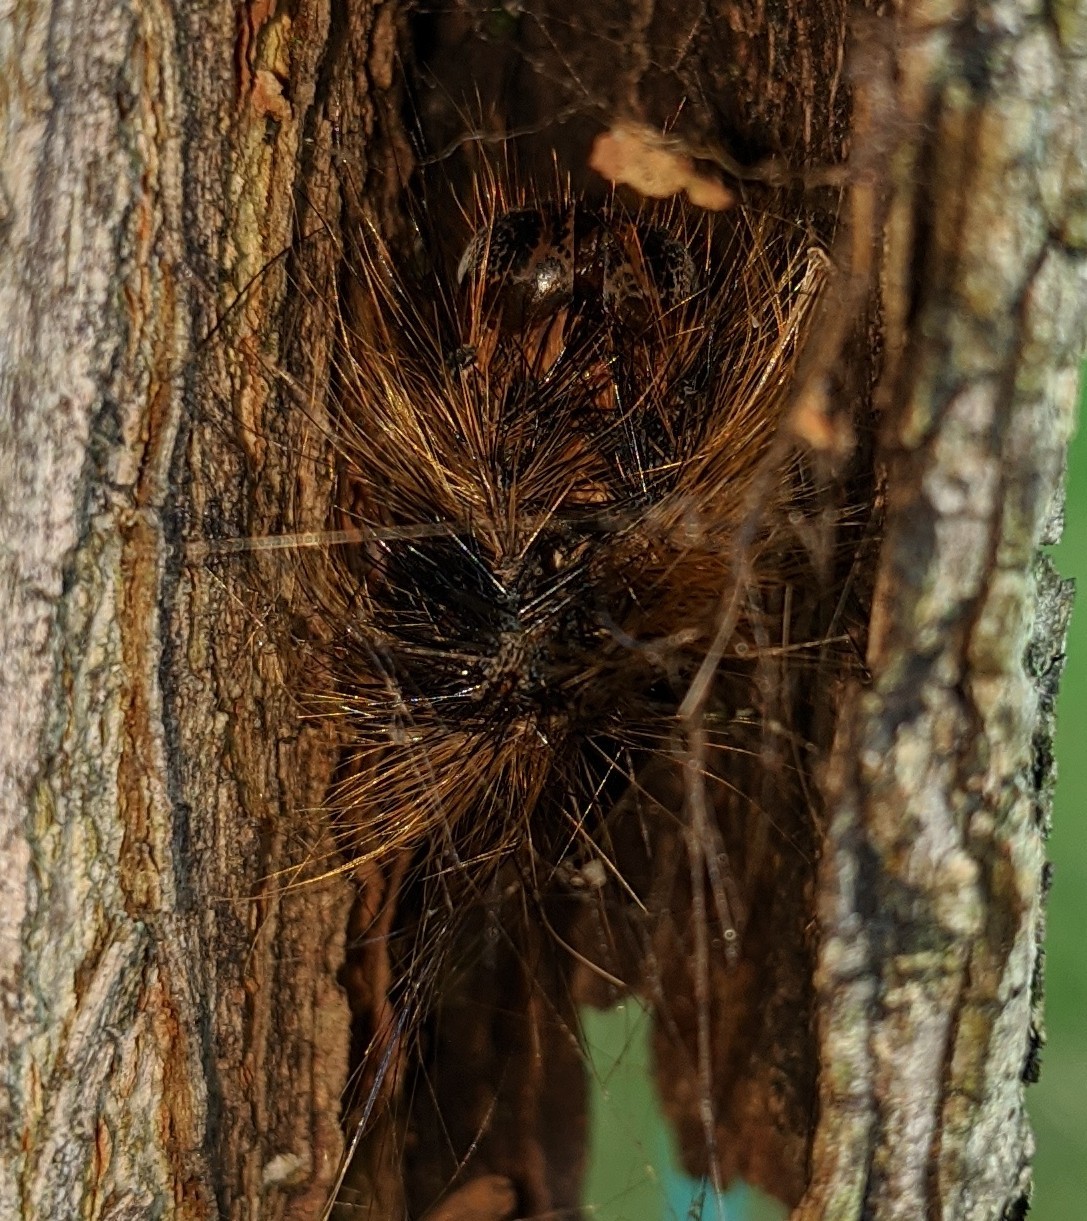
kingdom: Animalia
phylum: Arthropoda
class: Insecta
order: Lepidoptera
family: Erebidae
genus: Lymantria
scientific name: Lymantria dispar
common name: Gypsy moth
